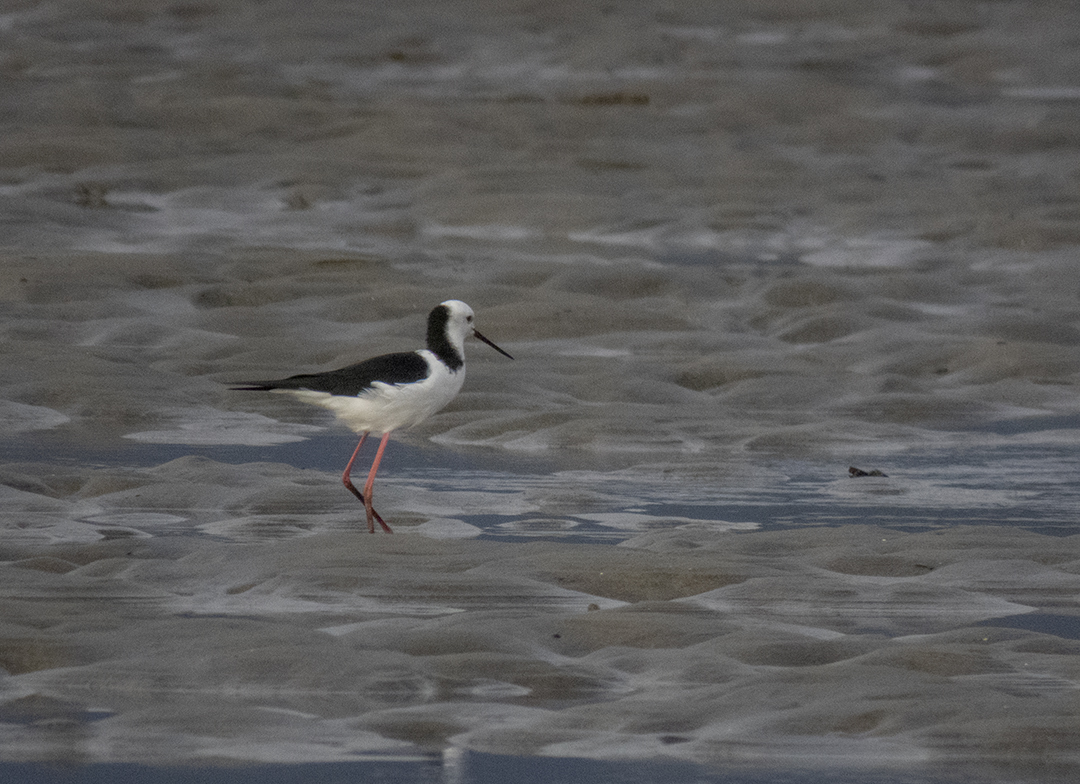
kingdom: Animalia
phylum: Chordata
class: Aves
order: Charadriiformes
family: Recurvirostridae
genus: Himantopus
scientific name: Himantopus leucocephalus
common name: White-headed stilt
